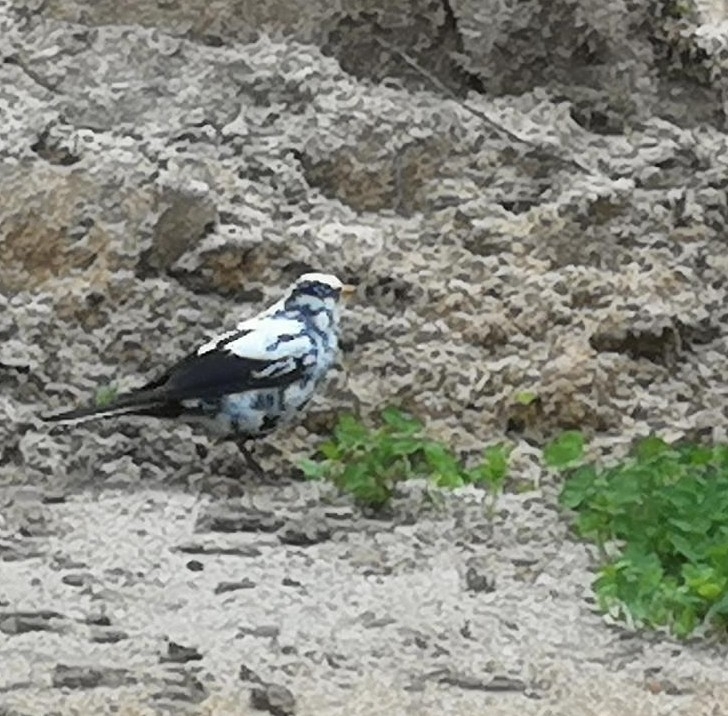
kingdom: Animalia
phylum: Chordata
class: Aves
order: Passeriformes
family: Turdidae
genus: Turdus
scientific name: Turdus merula
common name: Common blackbird
